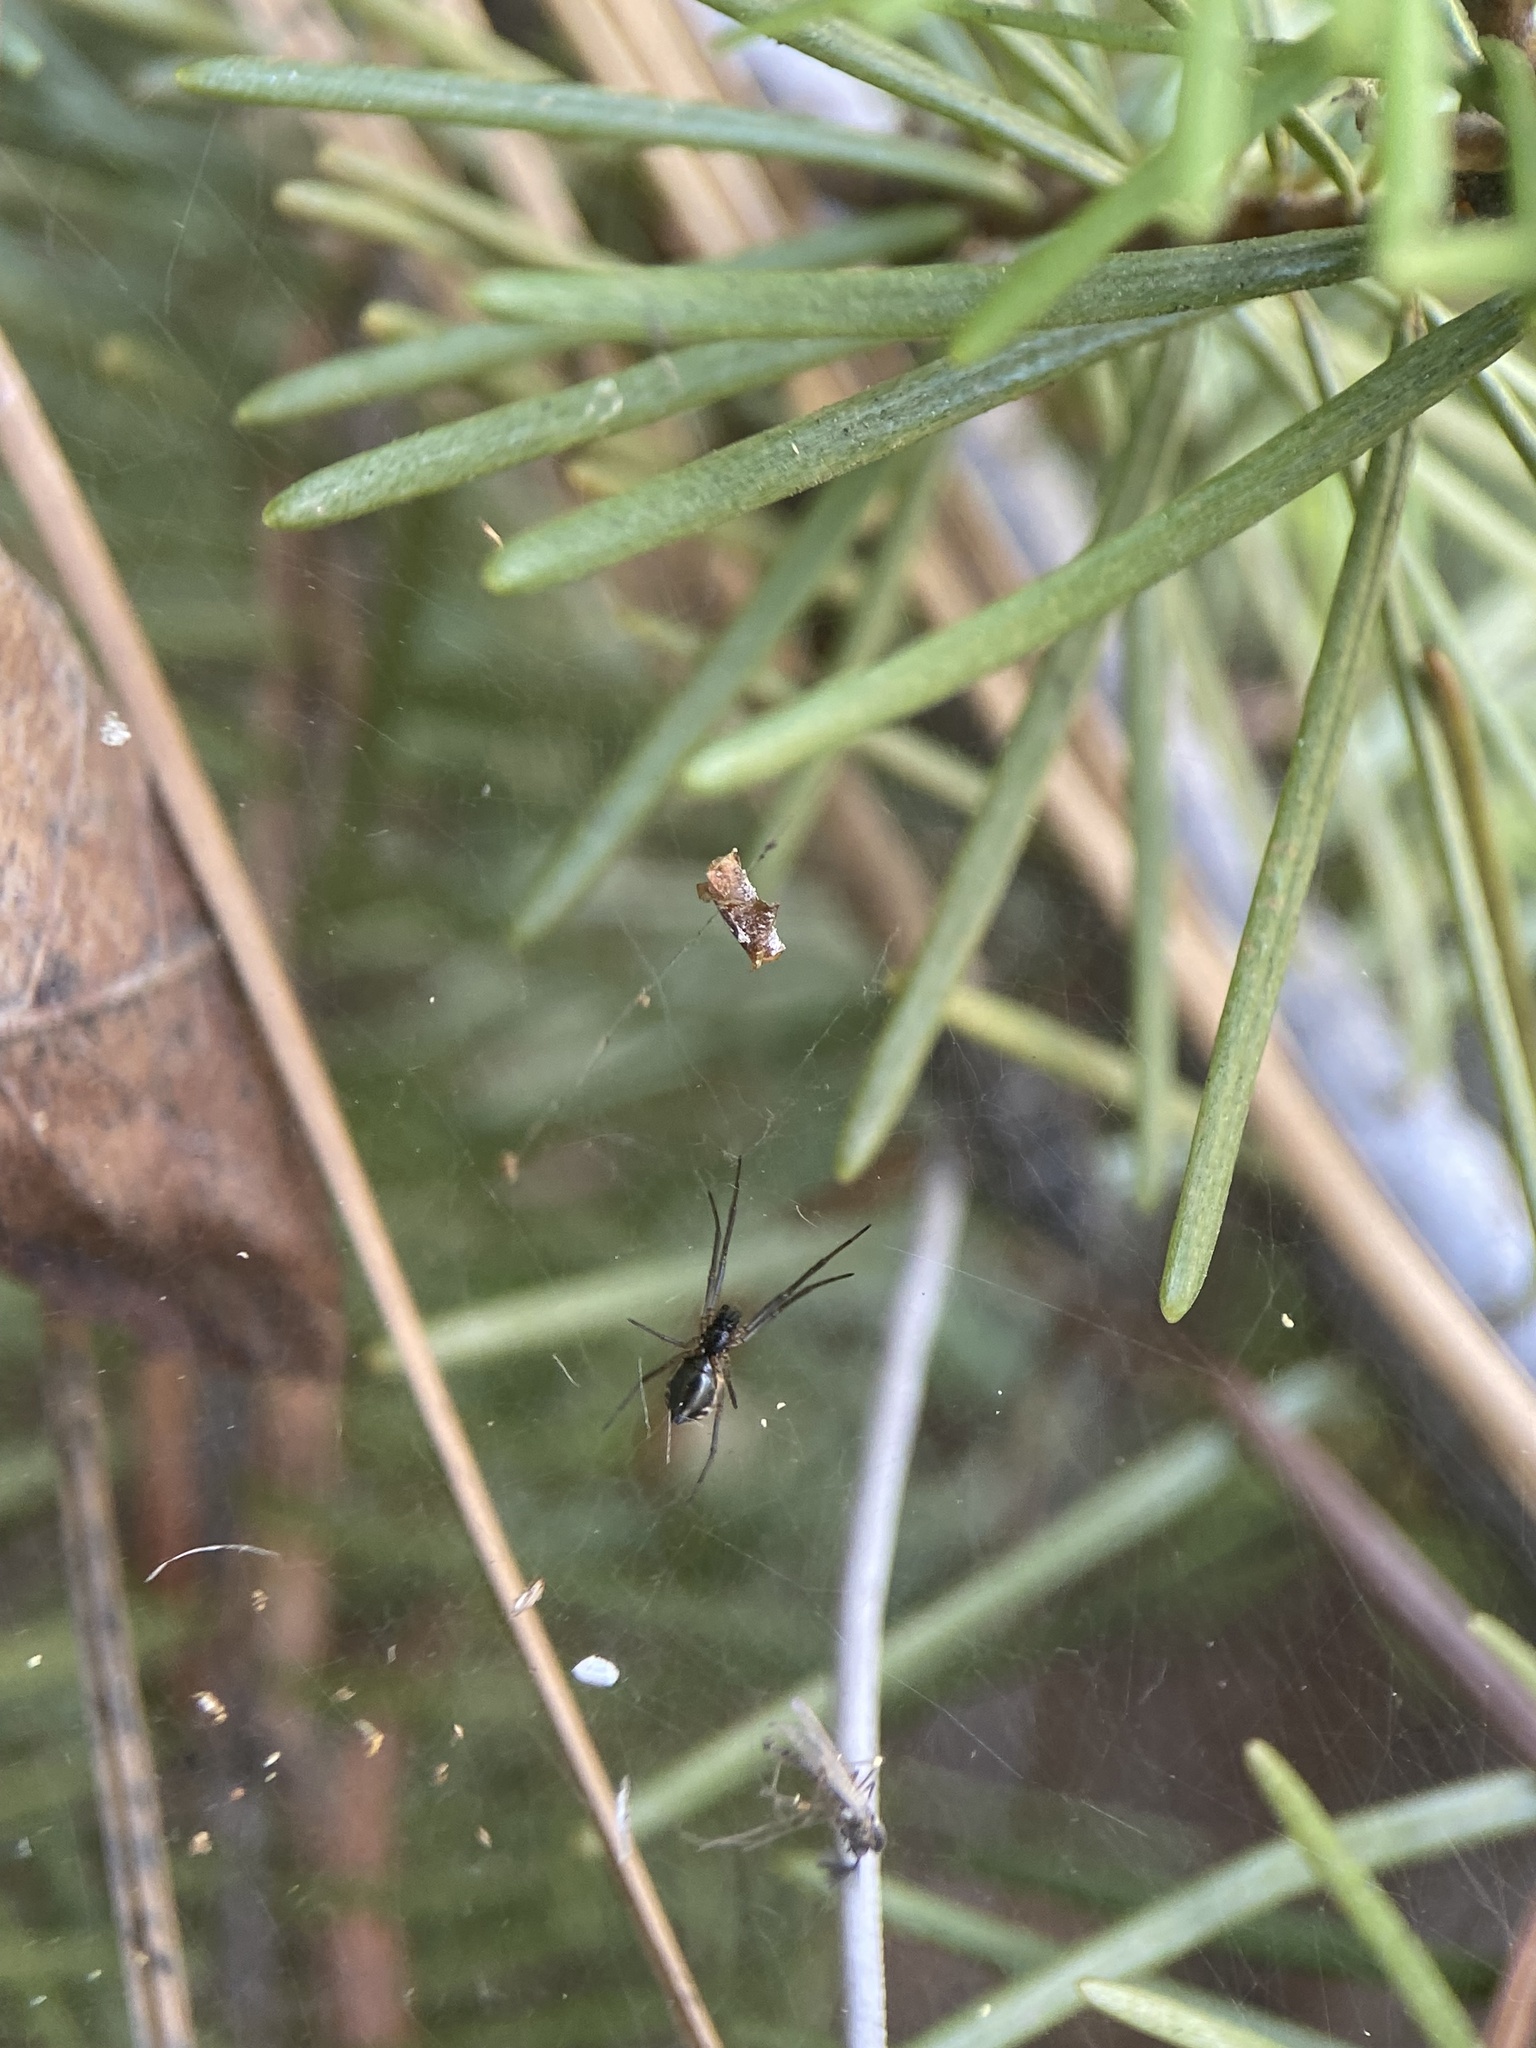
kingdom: Animalia
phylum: Arthropoda
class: Arachnida
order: Araneae
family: Linyphiidae
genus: Frontinella
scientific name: Frontinella pyramitela
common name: Bowl-and-doily spider
